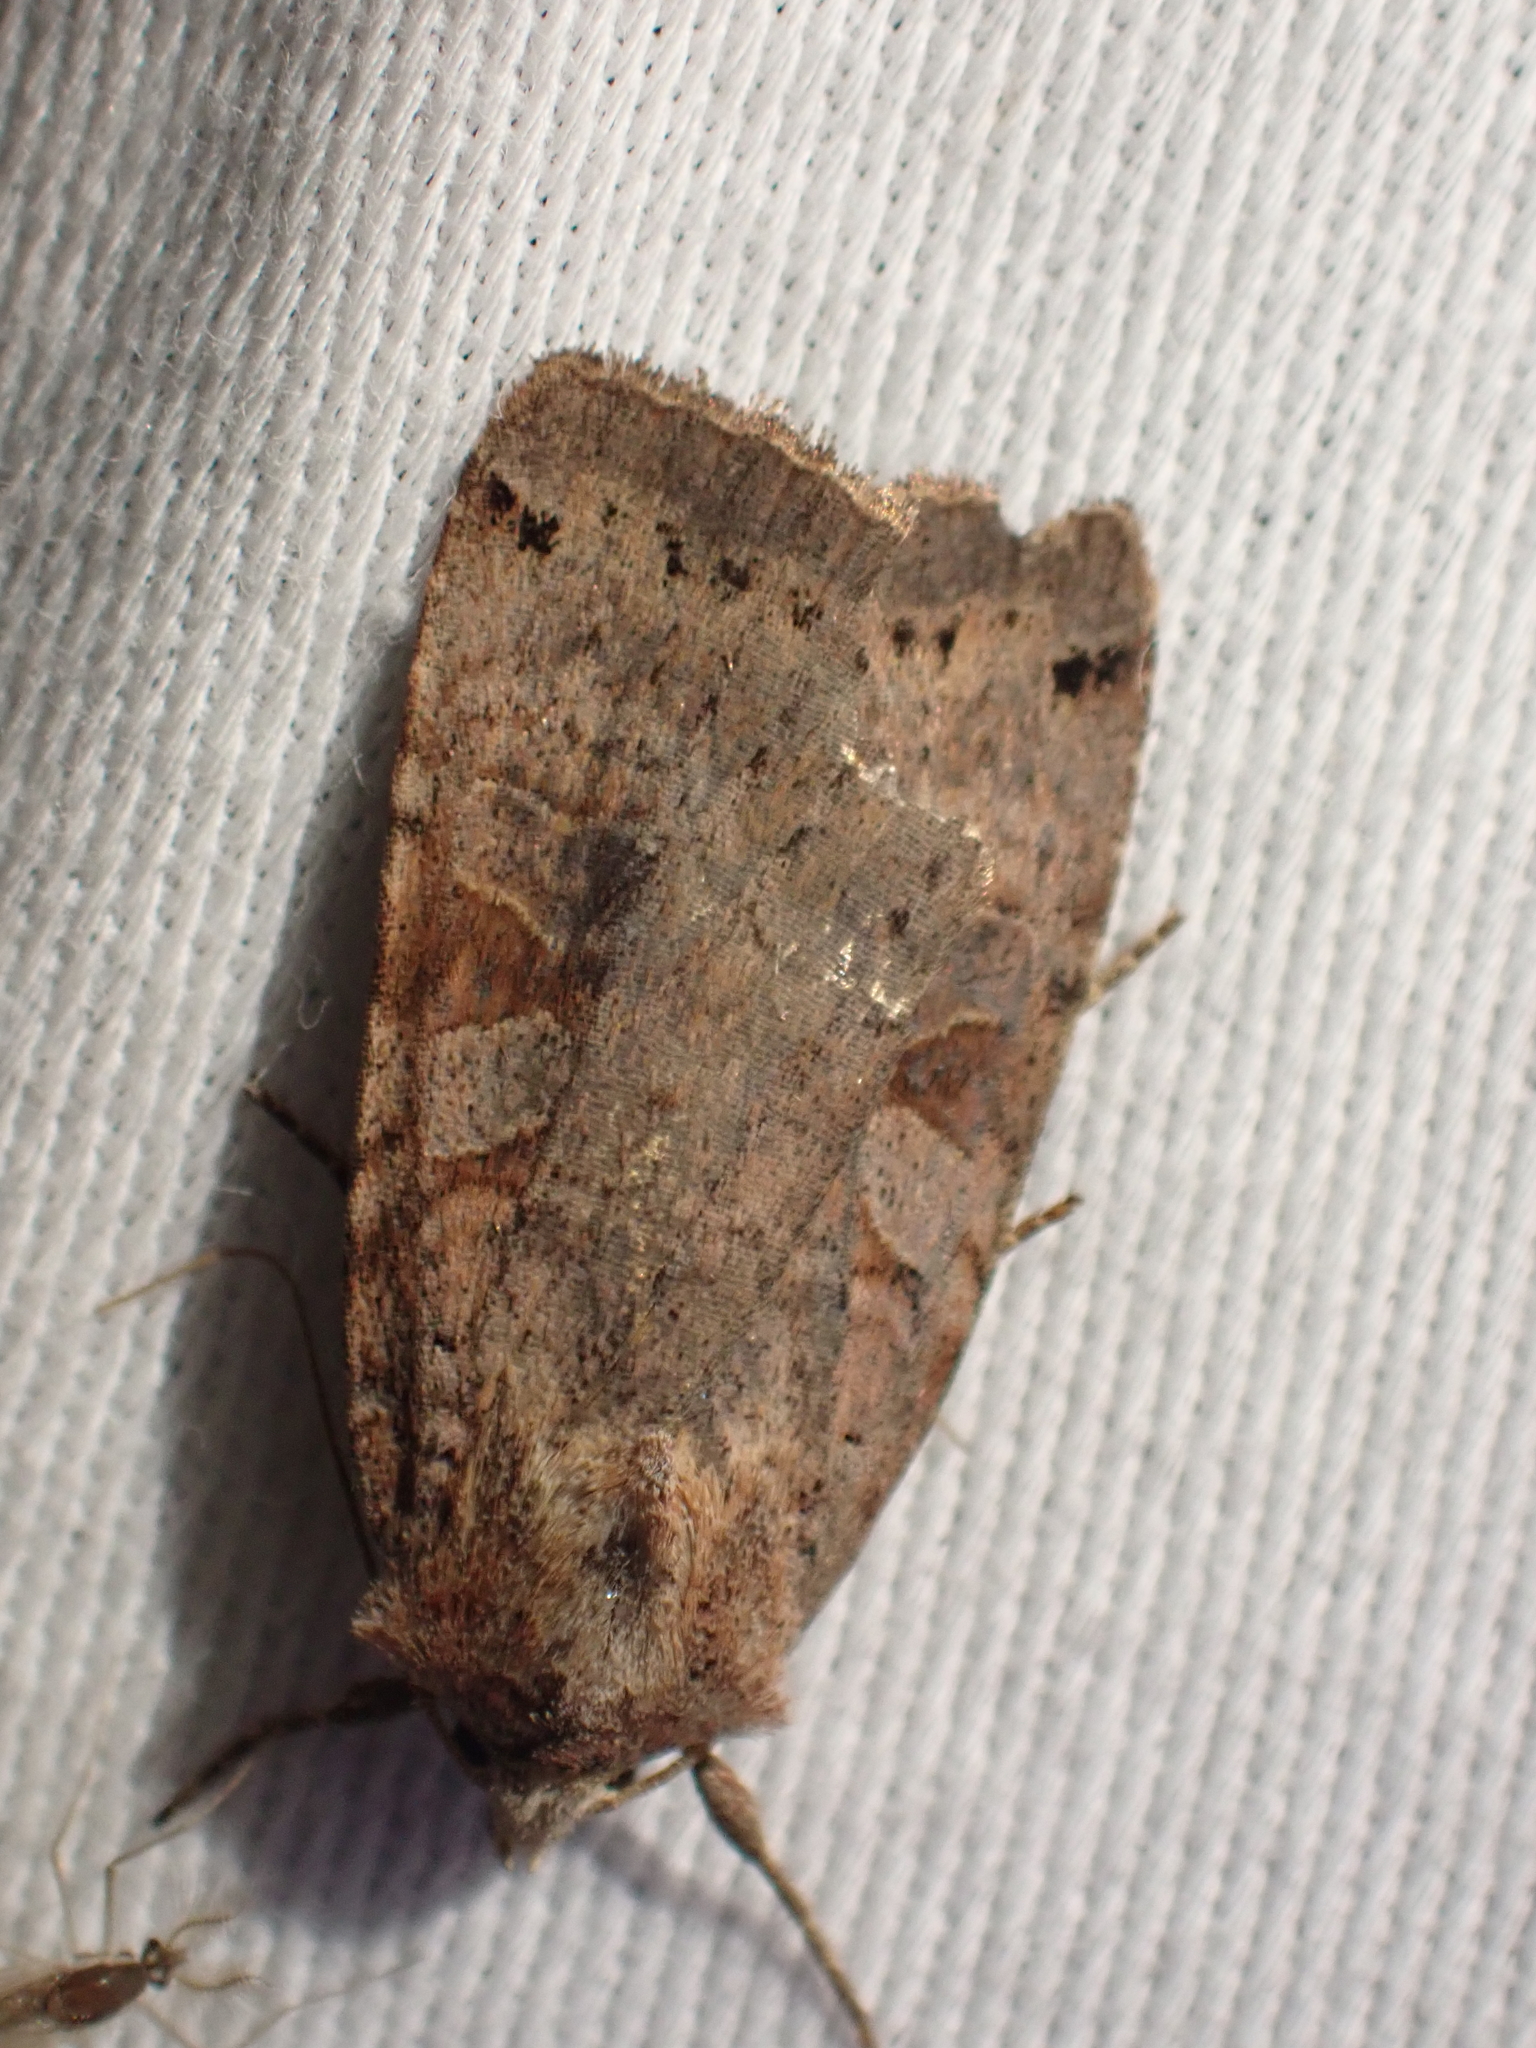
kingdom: Animalia
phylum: Arthropoda
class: Insecta
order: Lepidoptera
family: Noctuidae
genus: Xestia
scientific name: Xestia smithii
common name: Smith's dart
